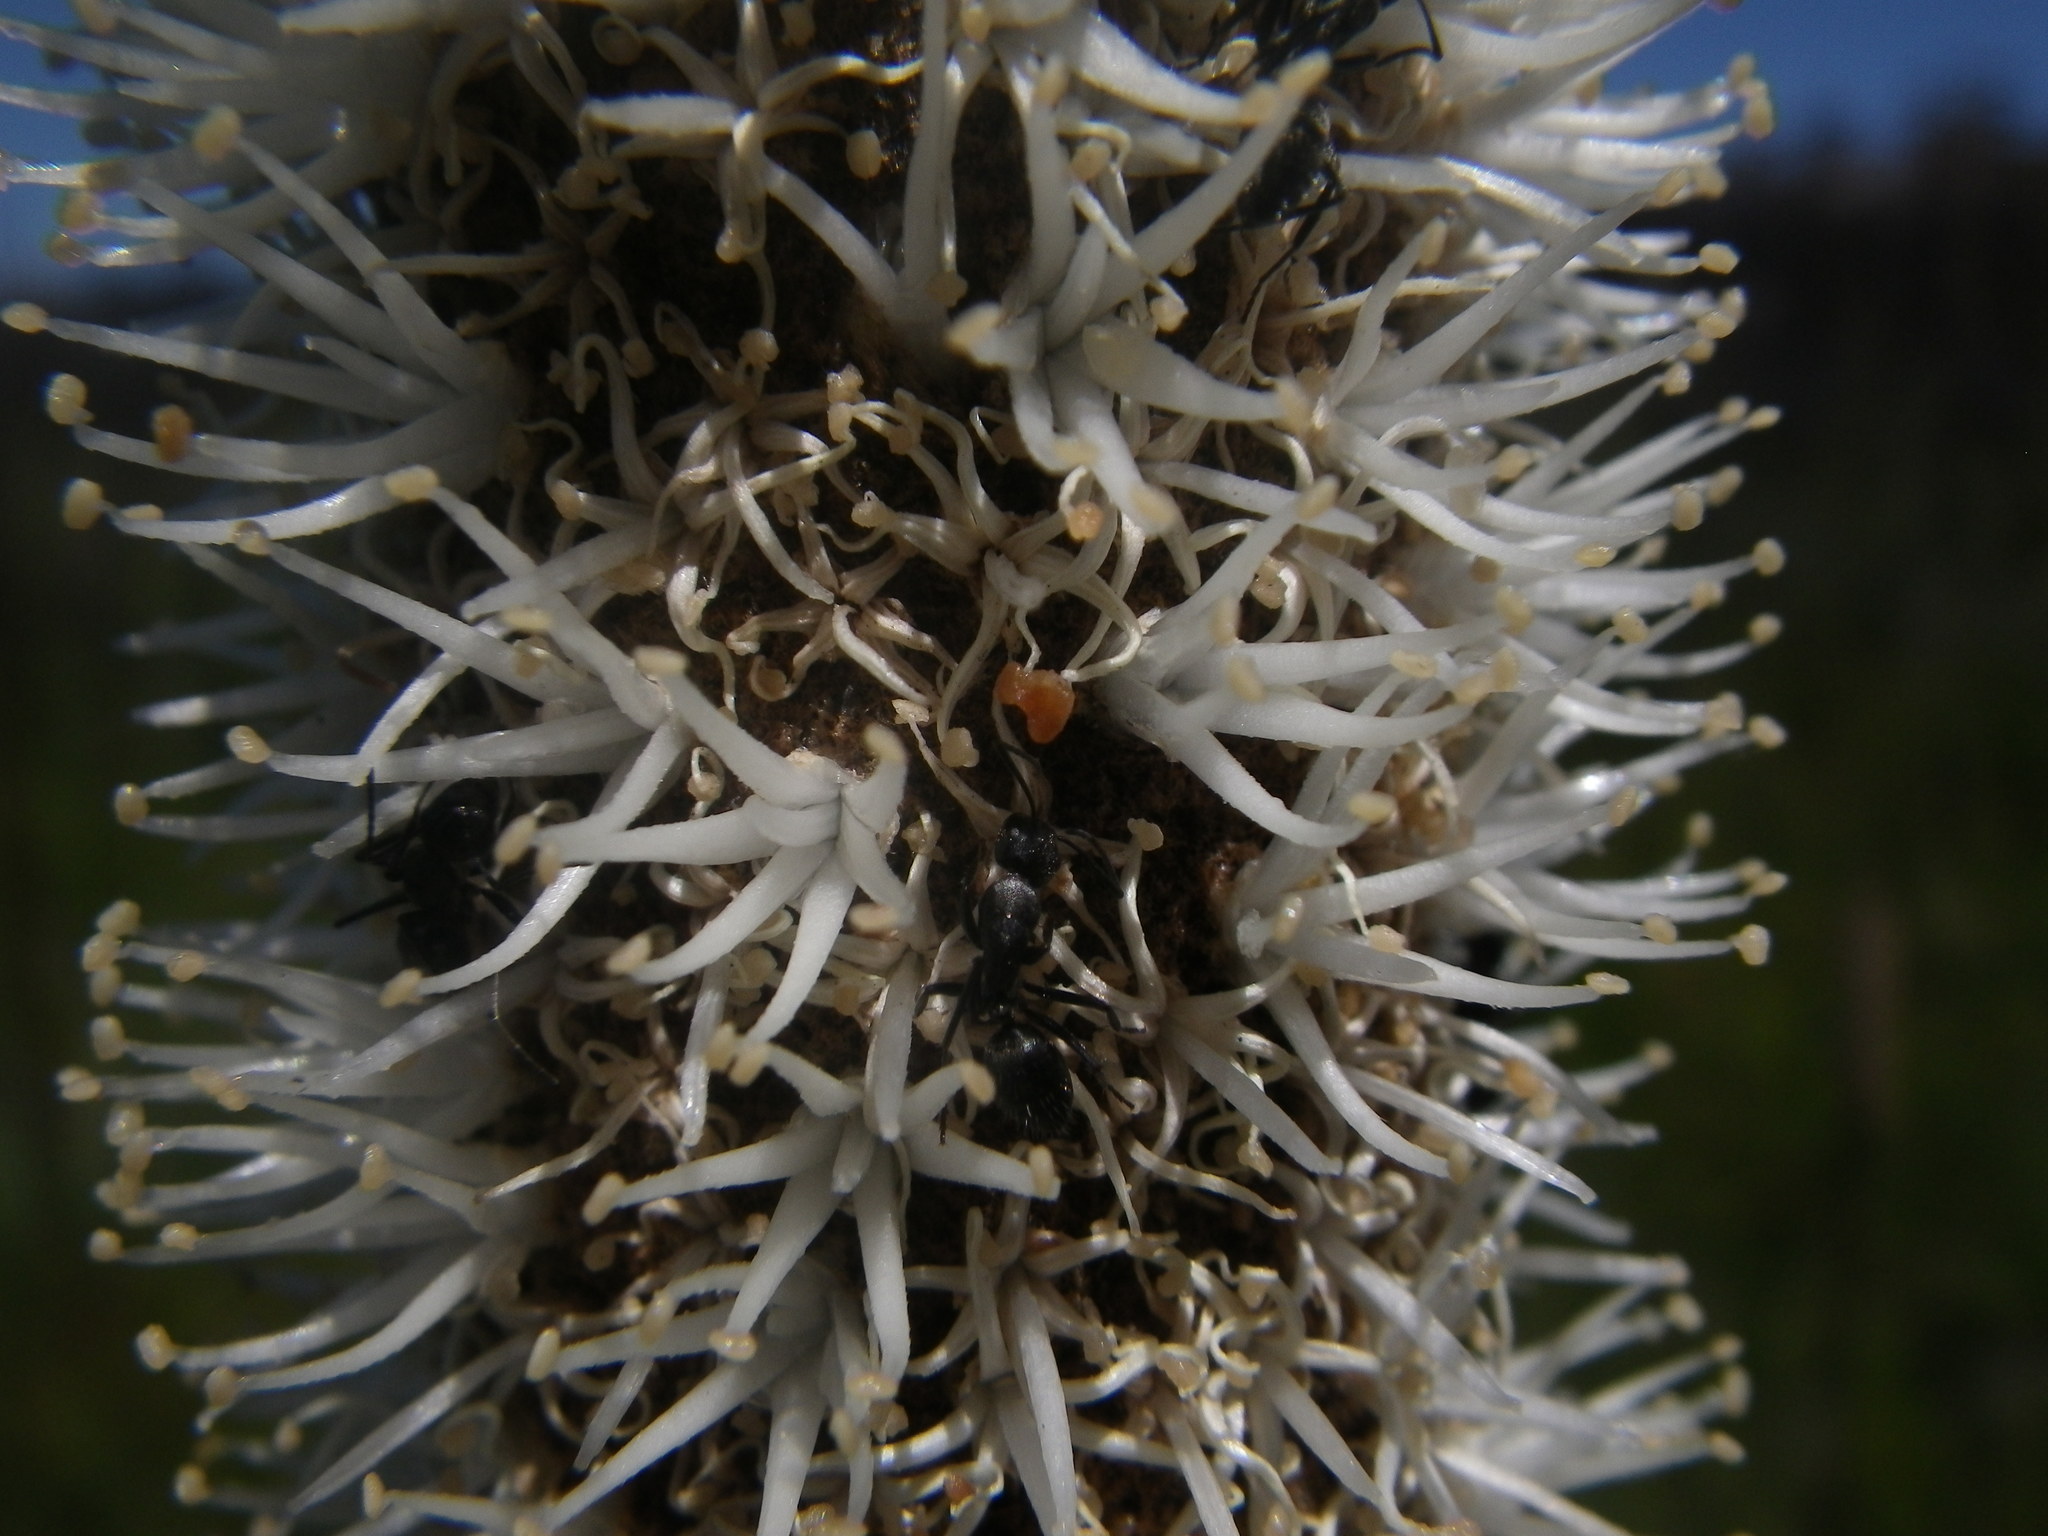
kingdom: Plantae
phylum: Tracheophyta
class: Liliopsida
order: Asparagales
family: Asphodelaceae
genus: Xanthorrhoea
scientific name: Xanthorrhoea resinosa
